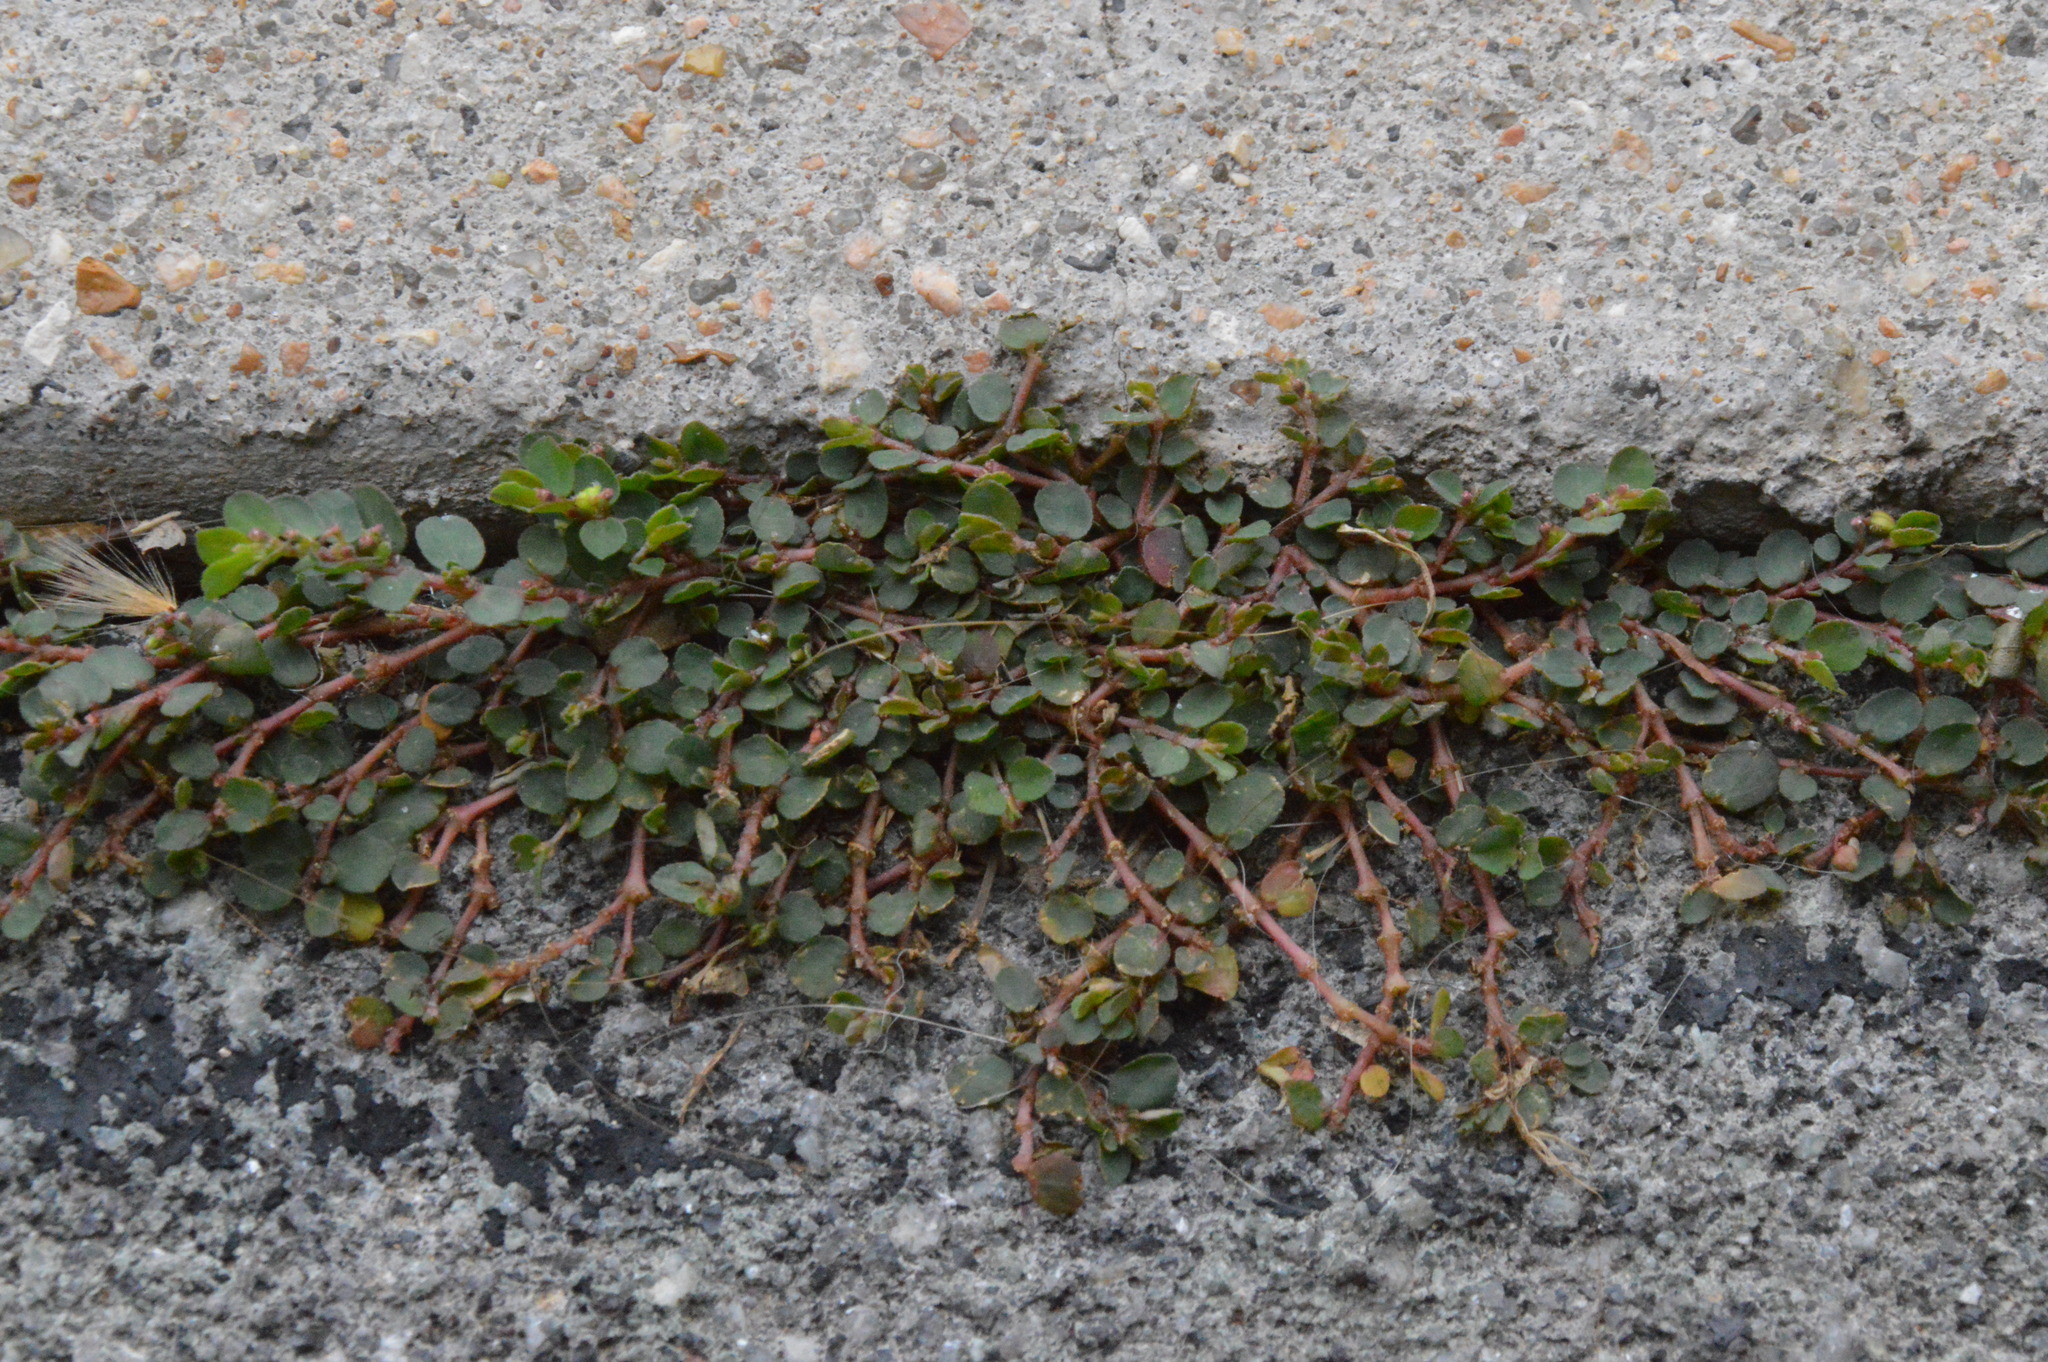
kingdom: Plantae
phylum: Tracheophyta
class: Magnoliopsida
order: Malpighiales
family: Euphorbiaceae
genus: Euphorbia
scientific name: Euphorbia prostrata
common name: Prostrate sandmat
